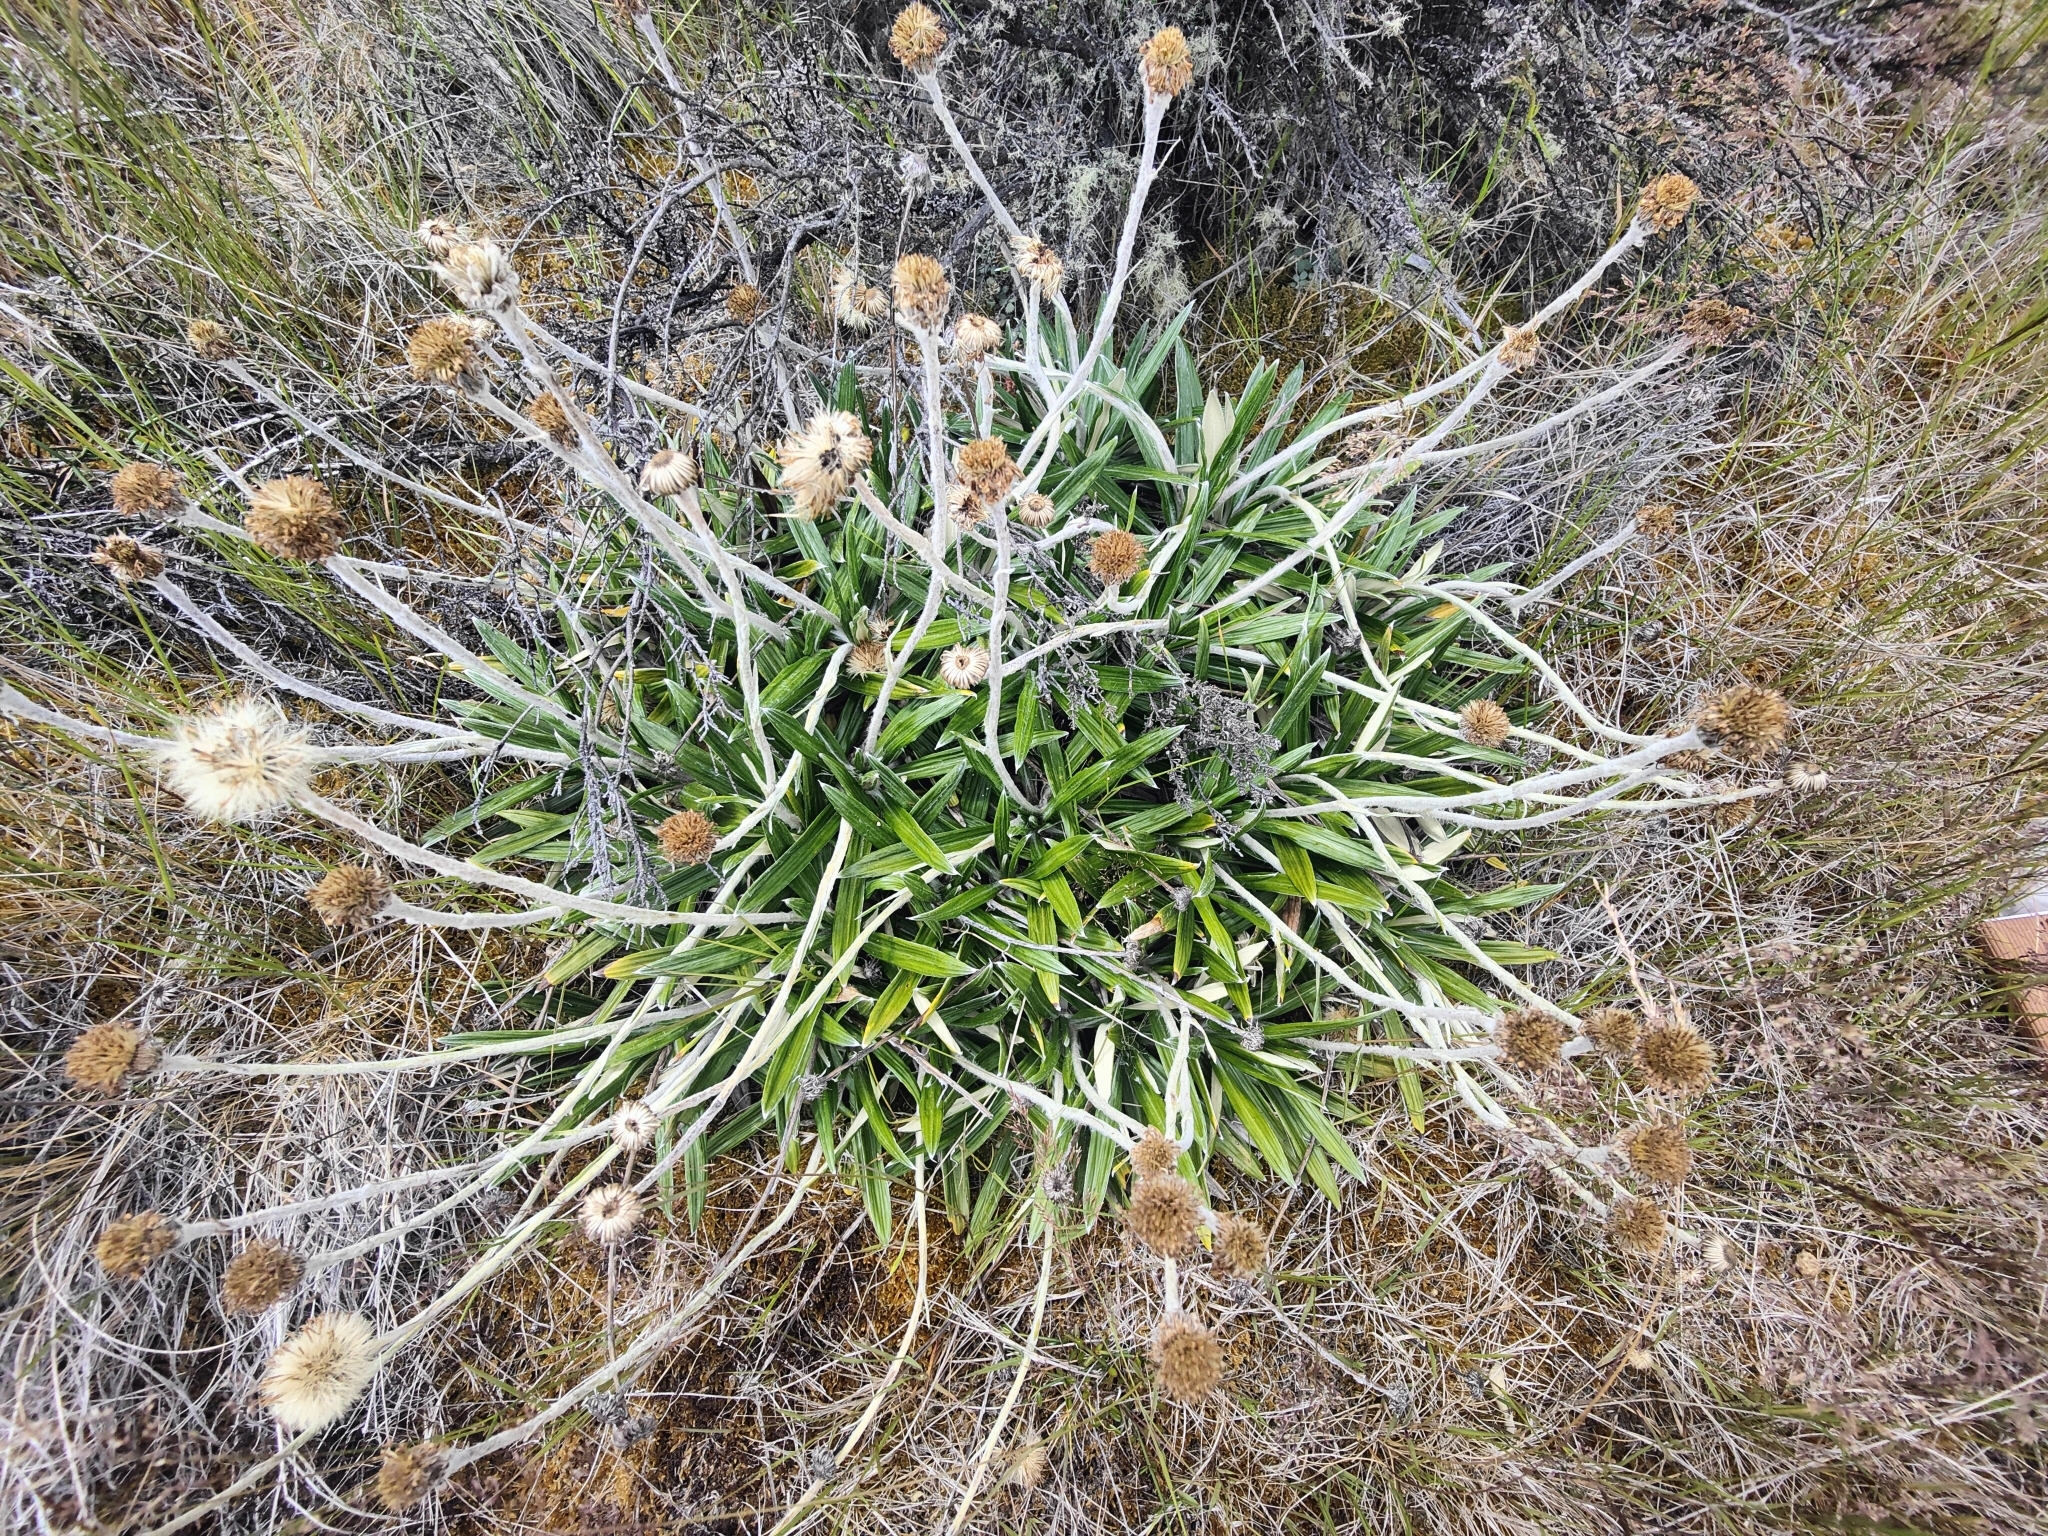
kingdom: Plantae
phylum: Tracheophyta
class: Magnoliopsida
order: Asterales
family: Asteraceae
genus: Celmisia
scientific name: Celmisia spectabilis
